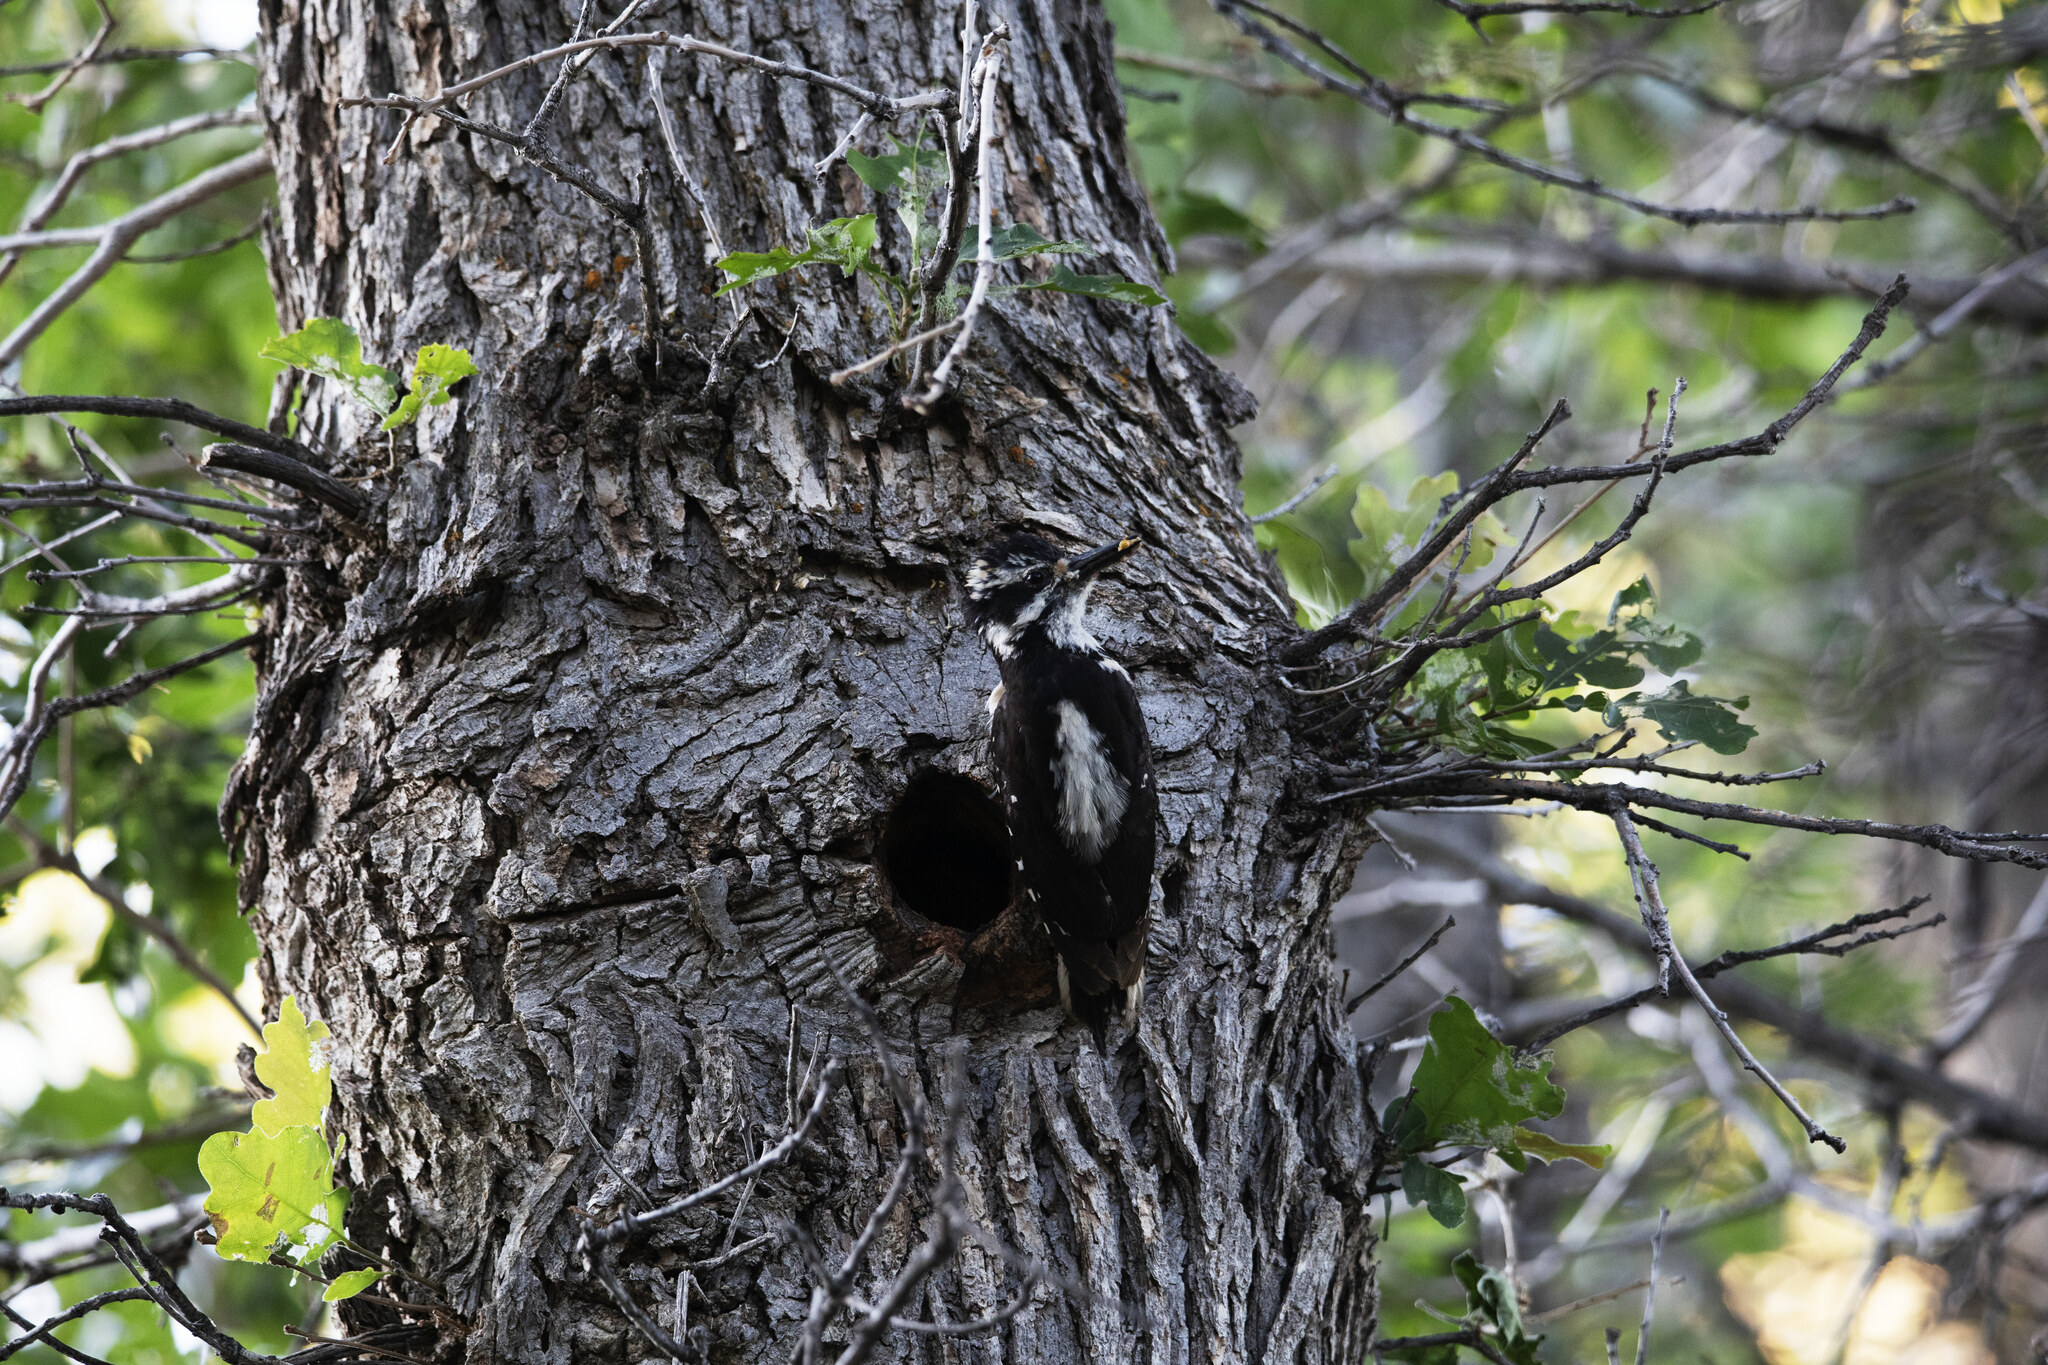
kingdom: Animalia
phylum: Chordata
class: Aves
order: Piciformes
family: Picidae
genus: Leuconotopicus
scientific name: Leuconotopicus villosus
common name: Hairy woodpecker
